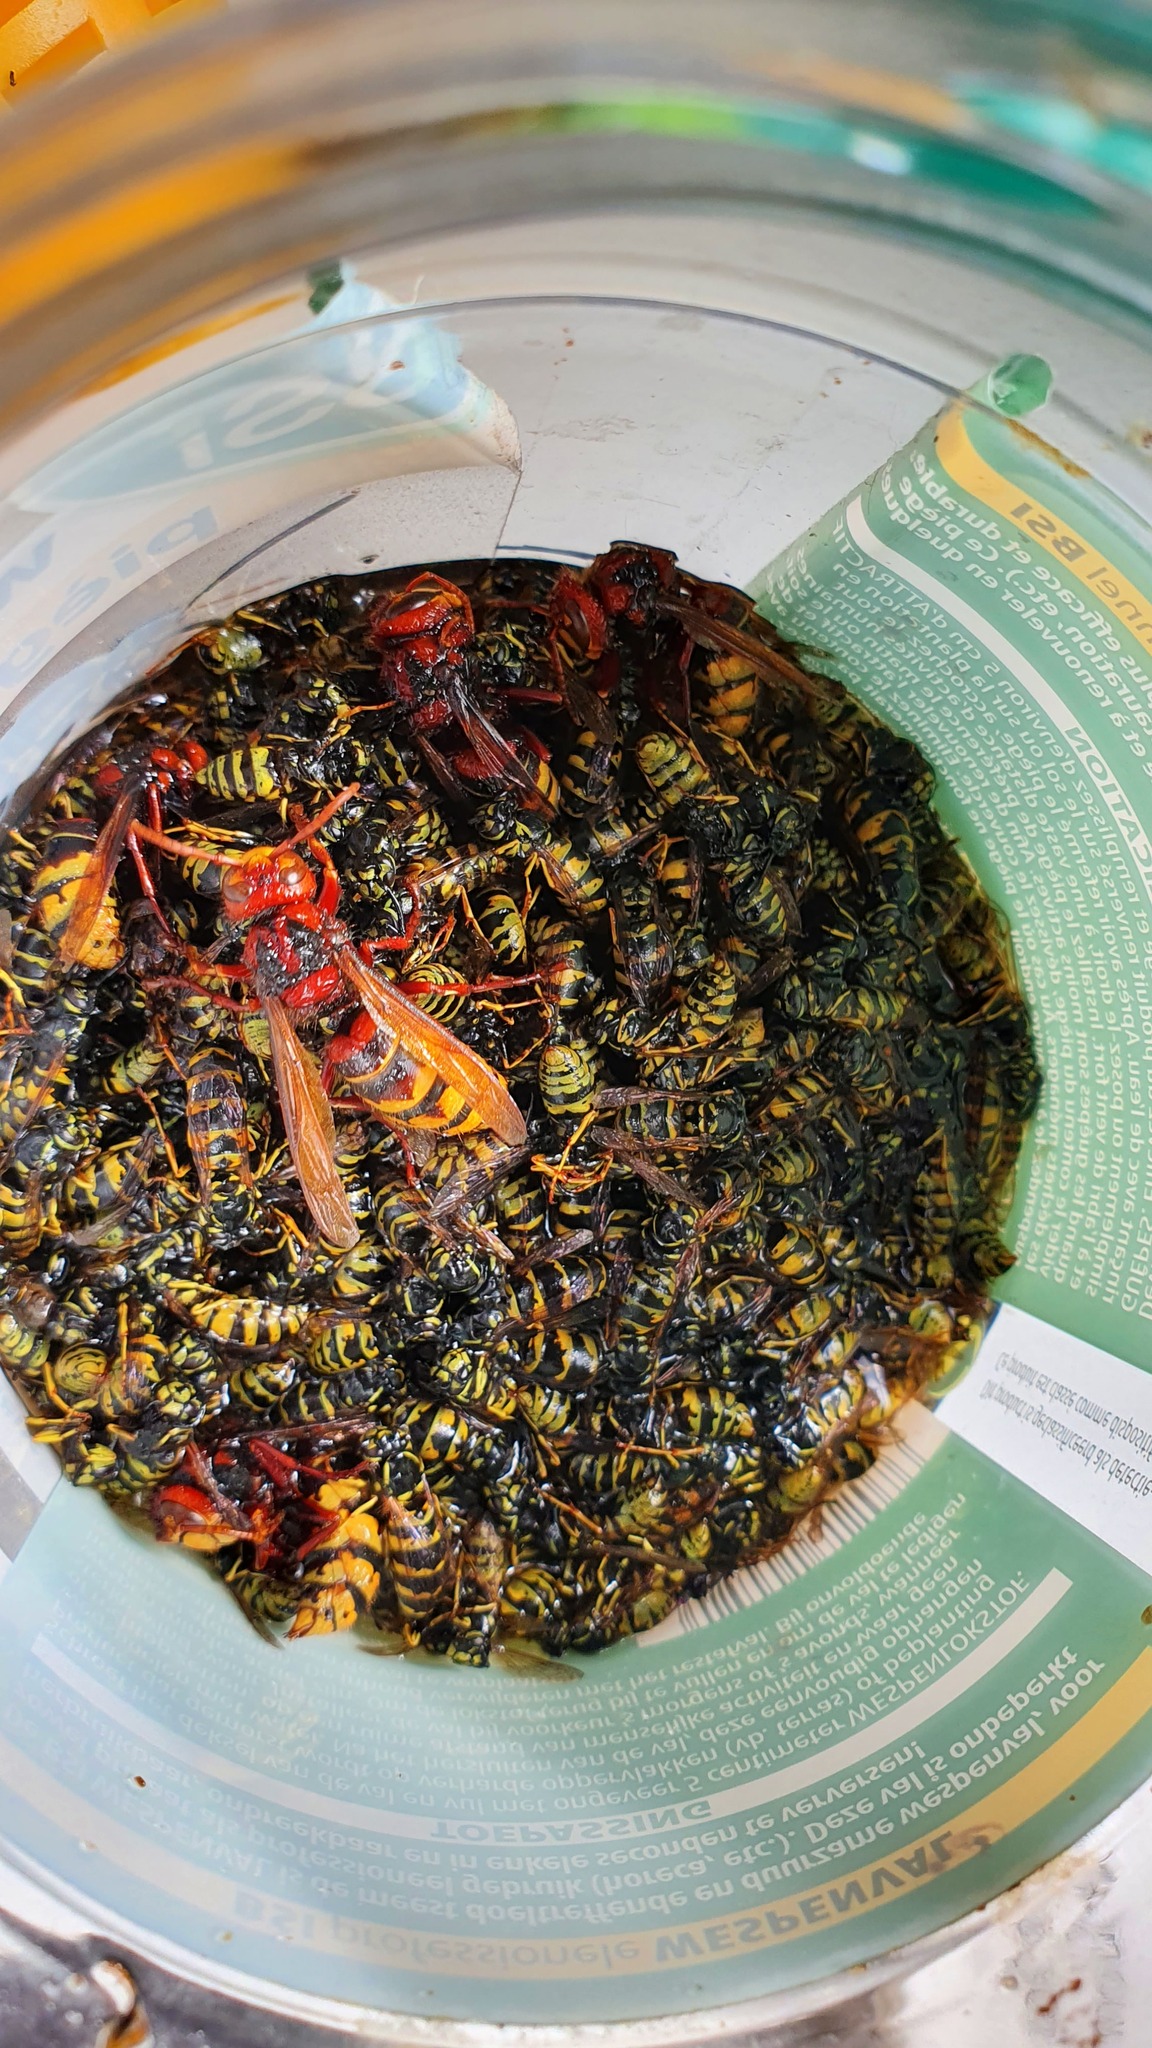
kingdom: Animalia
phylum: Arthropoda
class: Insecta
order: Hymenoptera
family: Vespidae
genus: Vespa
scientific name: Vespa crabro
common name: Hornet
